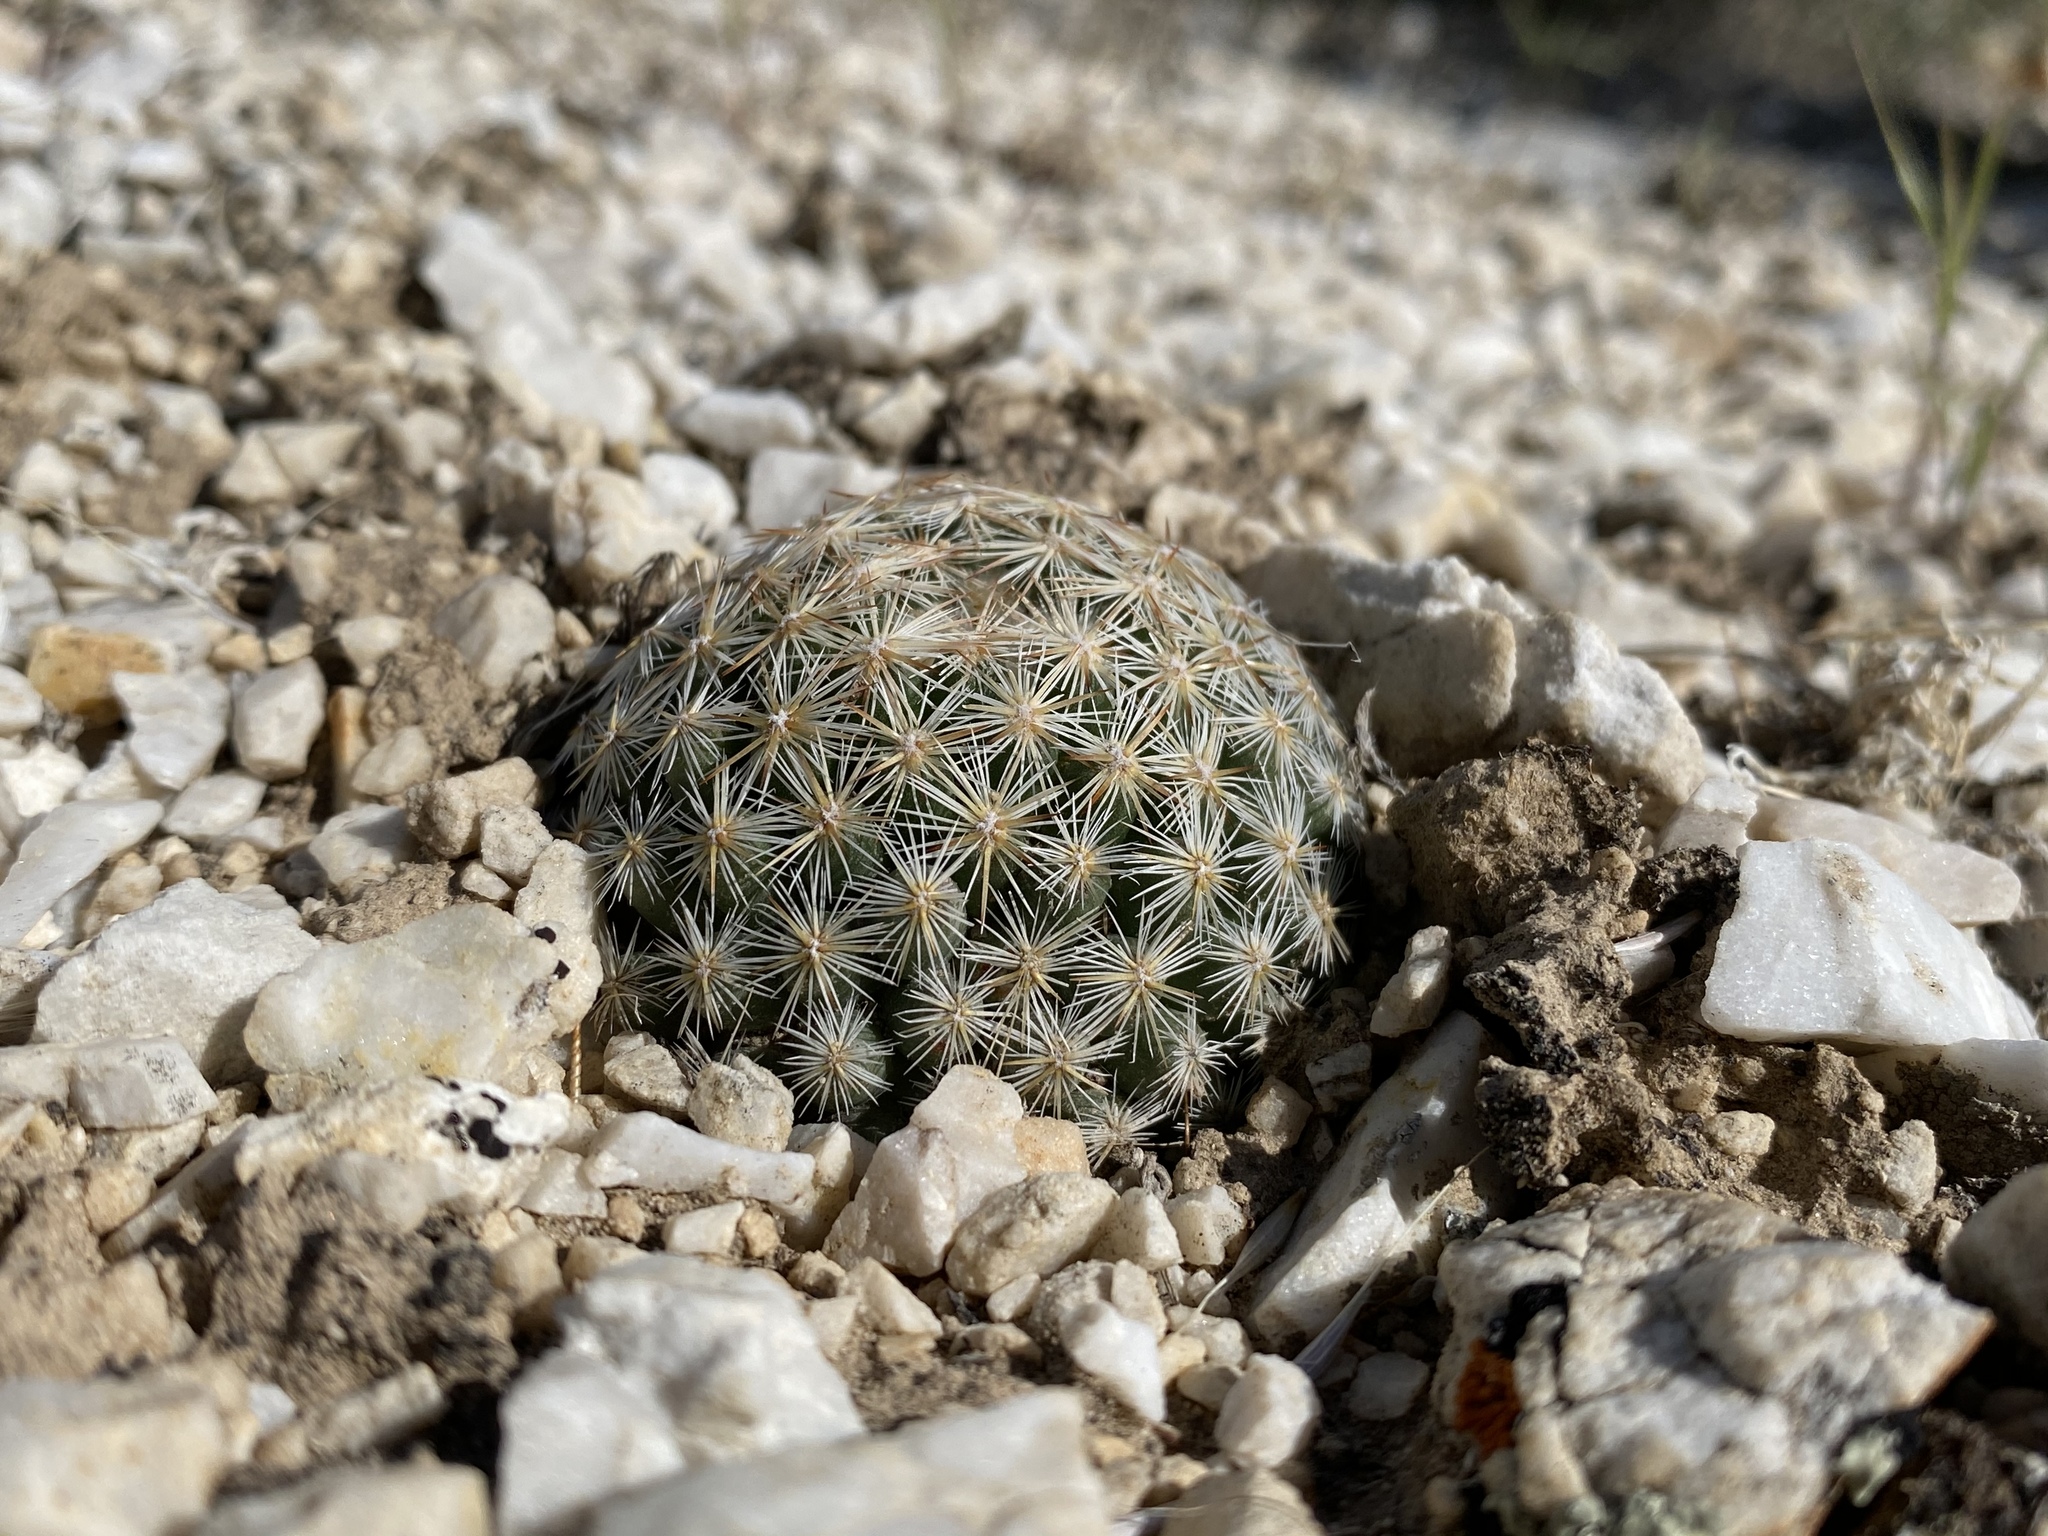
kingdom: Plantae
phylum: Tracheophyta
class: Magnoliopsida
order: Caryophyllales
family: Cactaceae
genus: Pelecyphora
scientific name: Pelecyphora vivipara
